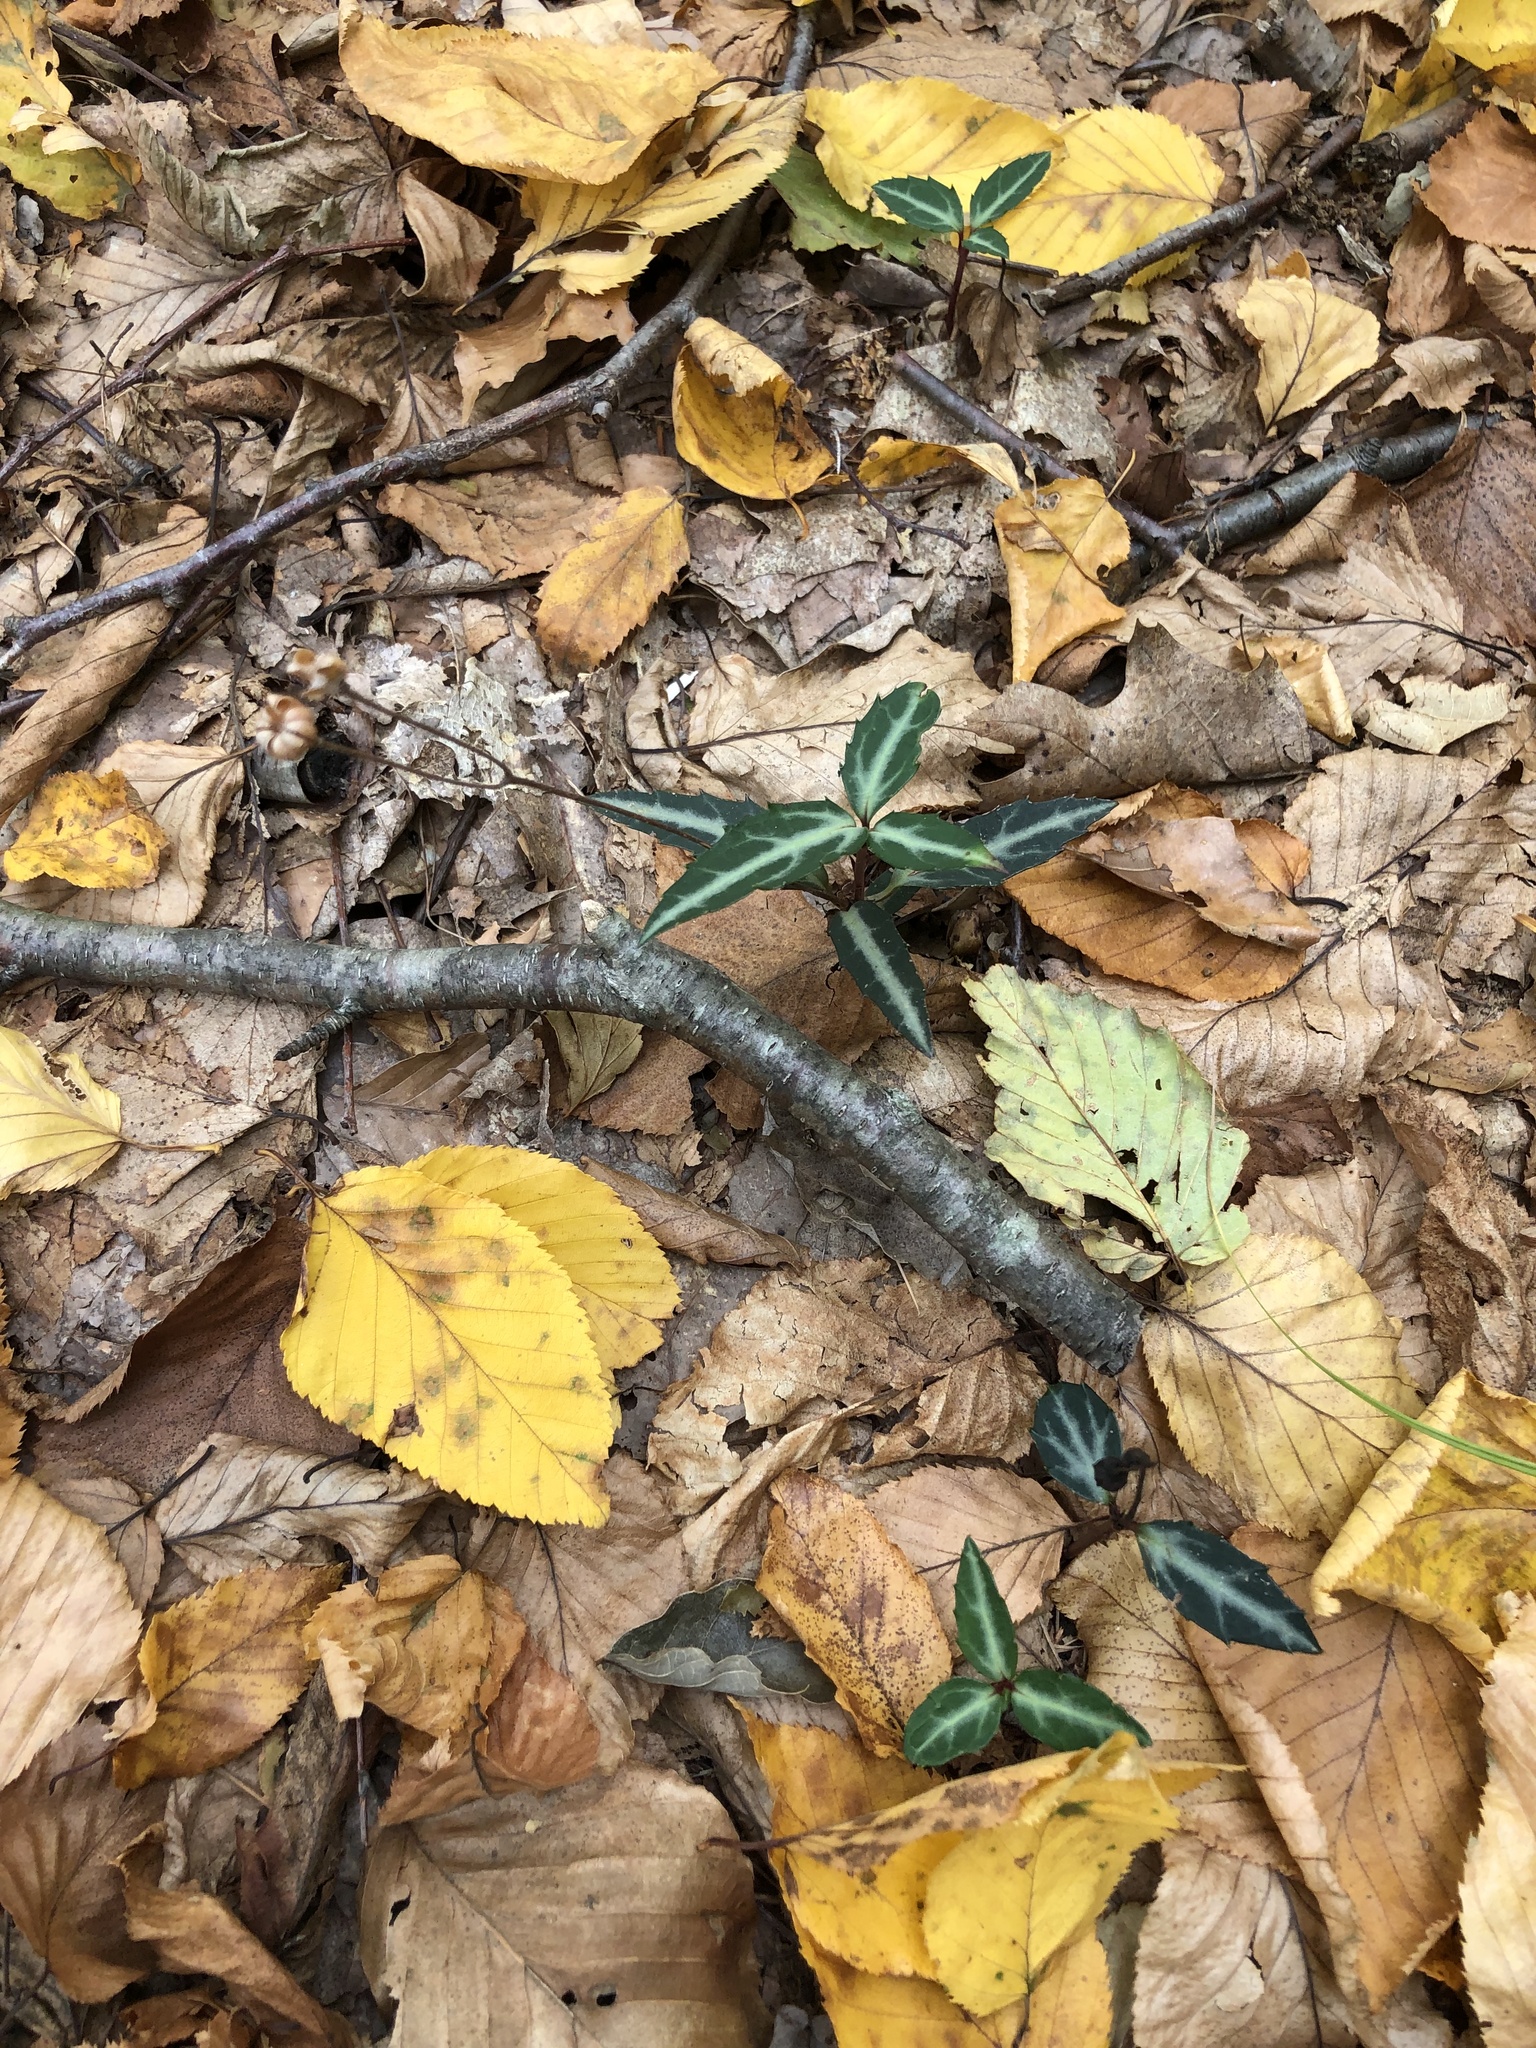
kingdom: Plantae
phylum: Tracheophyta
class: Magnoliopsida
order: Ericales
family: Ericaceae
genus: Chimaphila
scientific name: Chimaphila maculata
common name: Spotted pipsissewa
